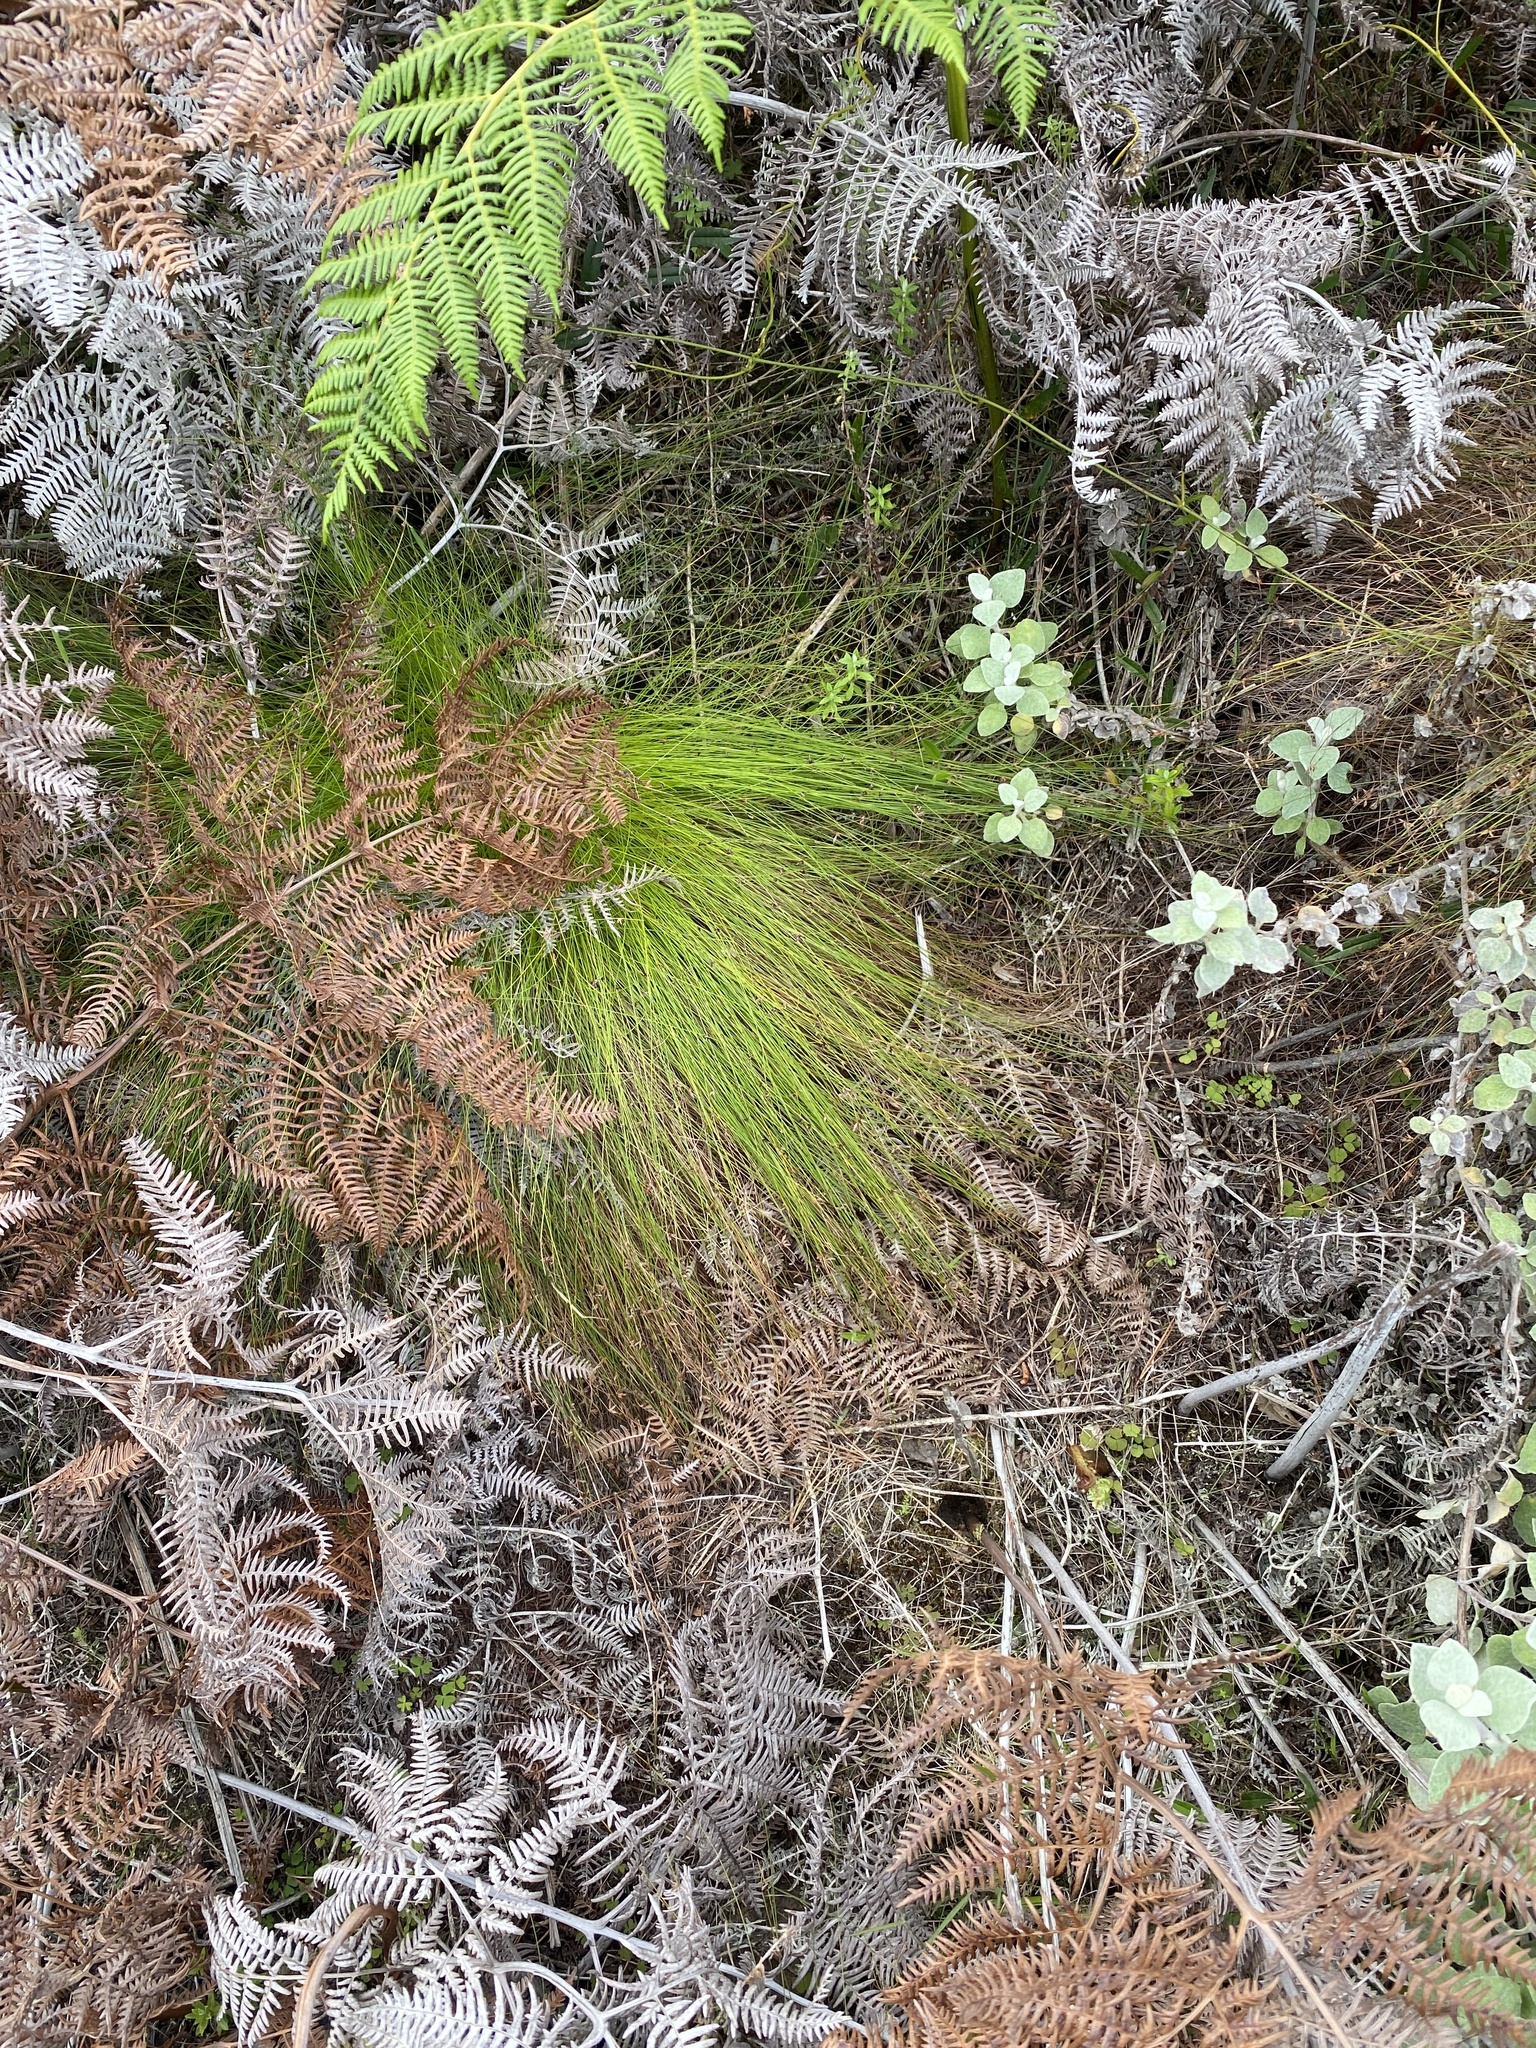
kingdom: Plantae
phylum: Tracheophyta
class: Liliopsida
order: Poales
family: Cyperaceae
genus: Ficinia
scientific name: Ficinia fascicularis
